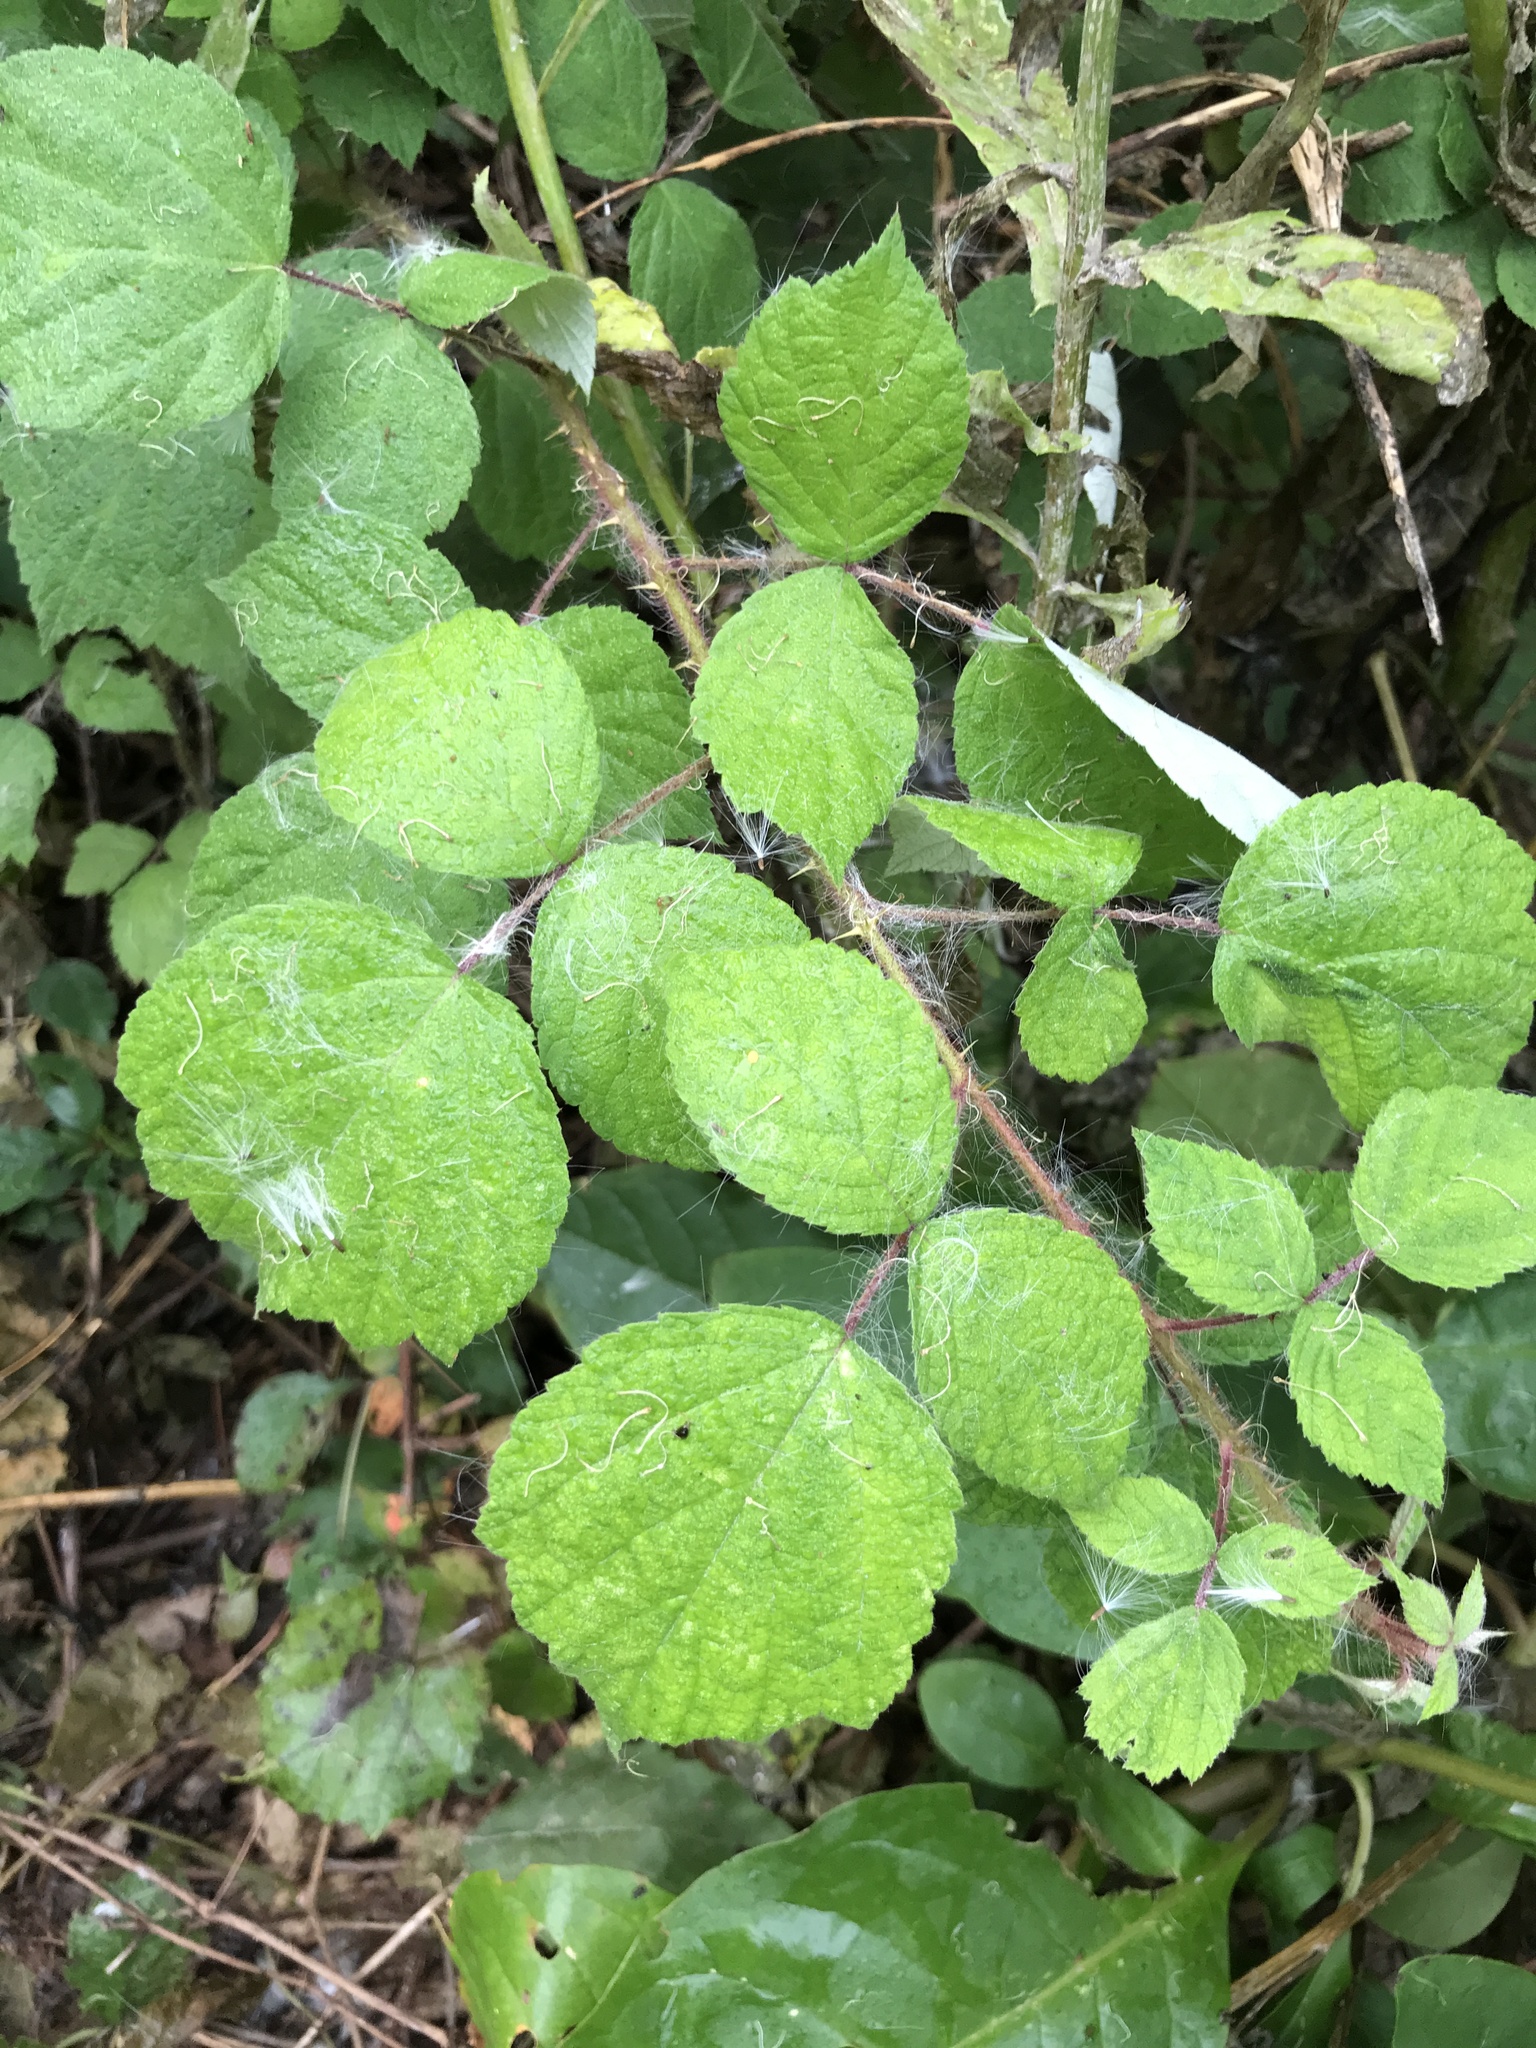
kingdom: Plantae
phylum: Tracheophyta
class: Magnoliopsida
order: Rosales
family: Rosaceae
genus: Rubus
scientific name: Rubus phoenicolasius
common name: Japanese wineberry
